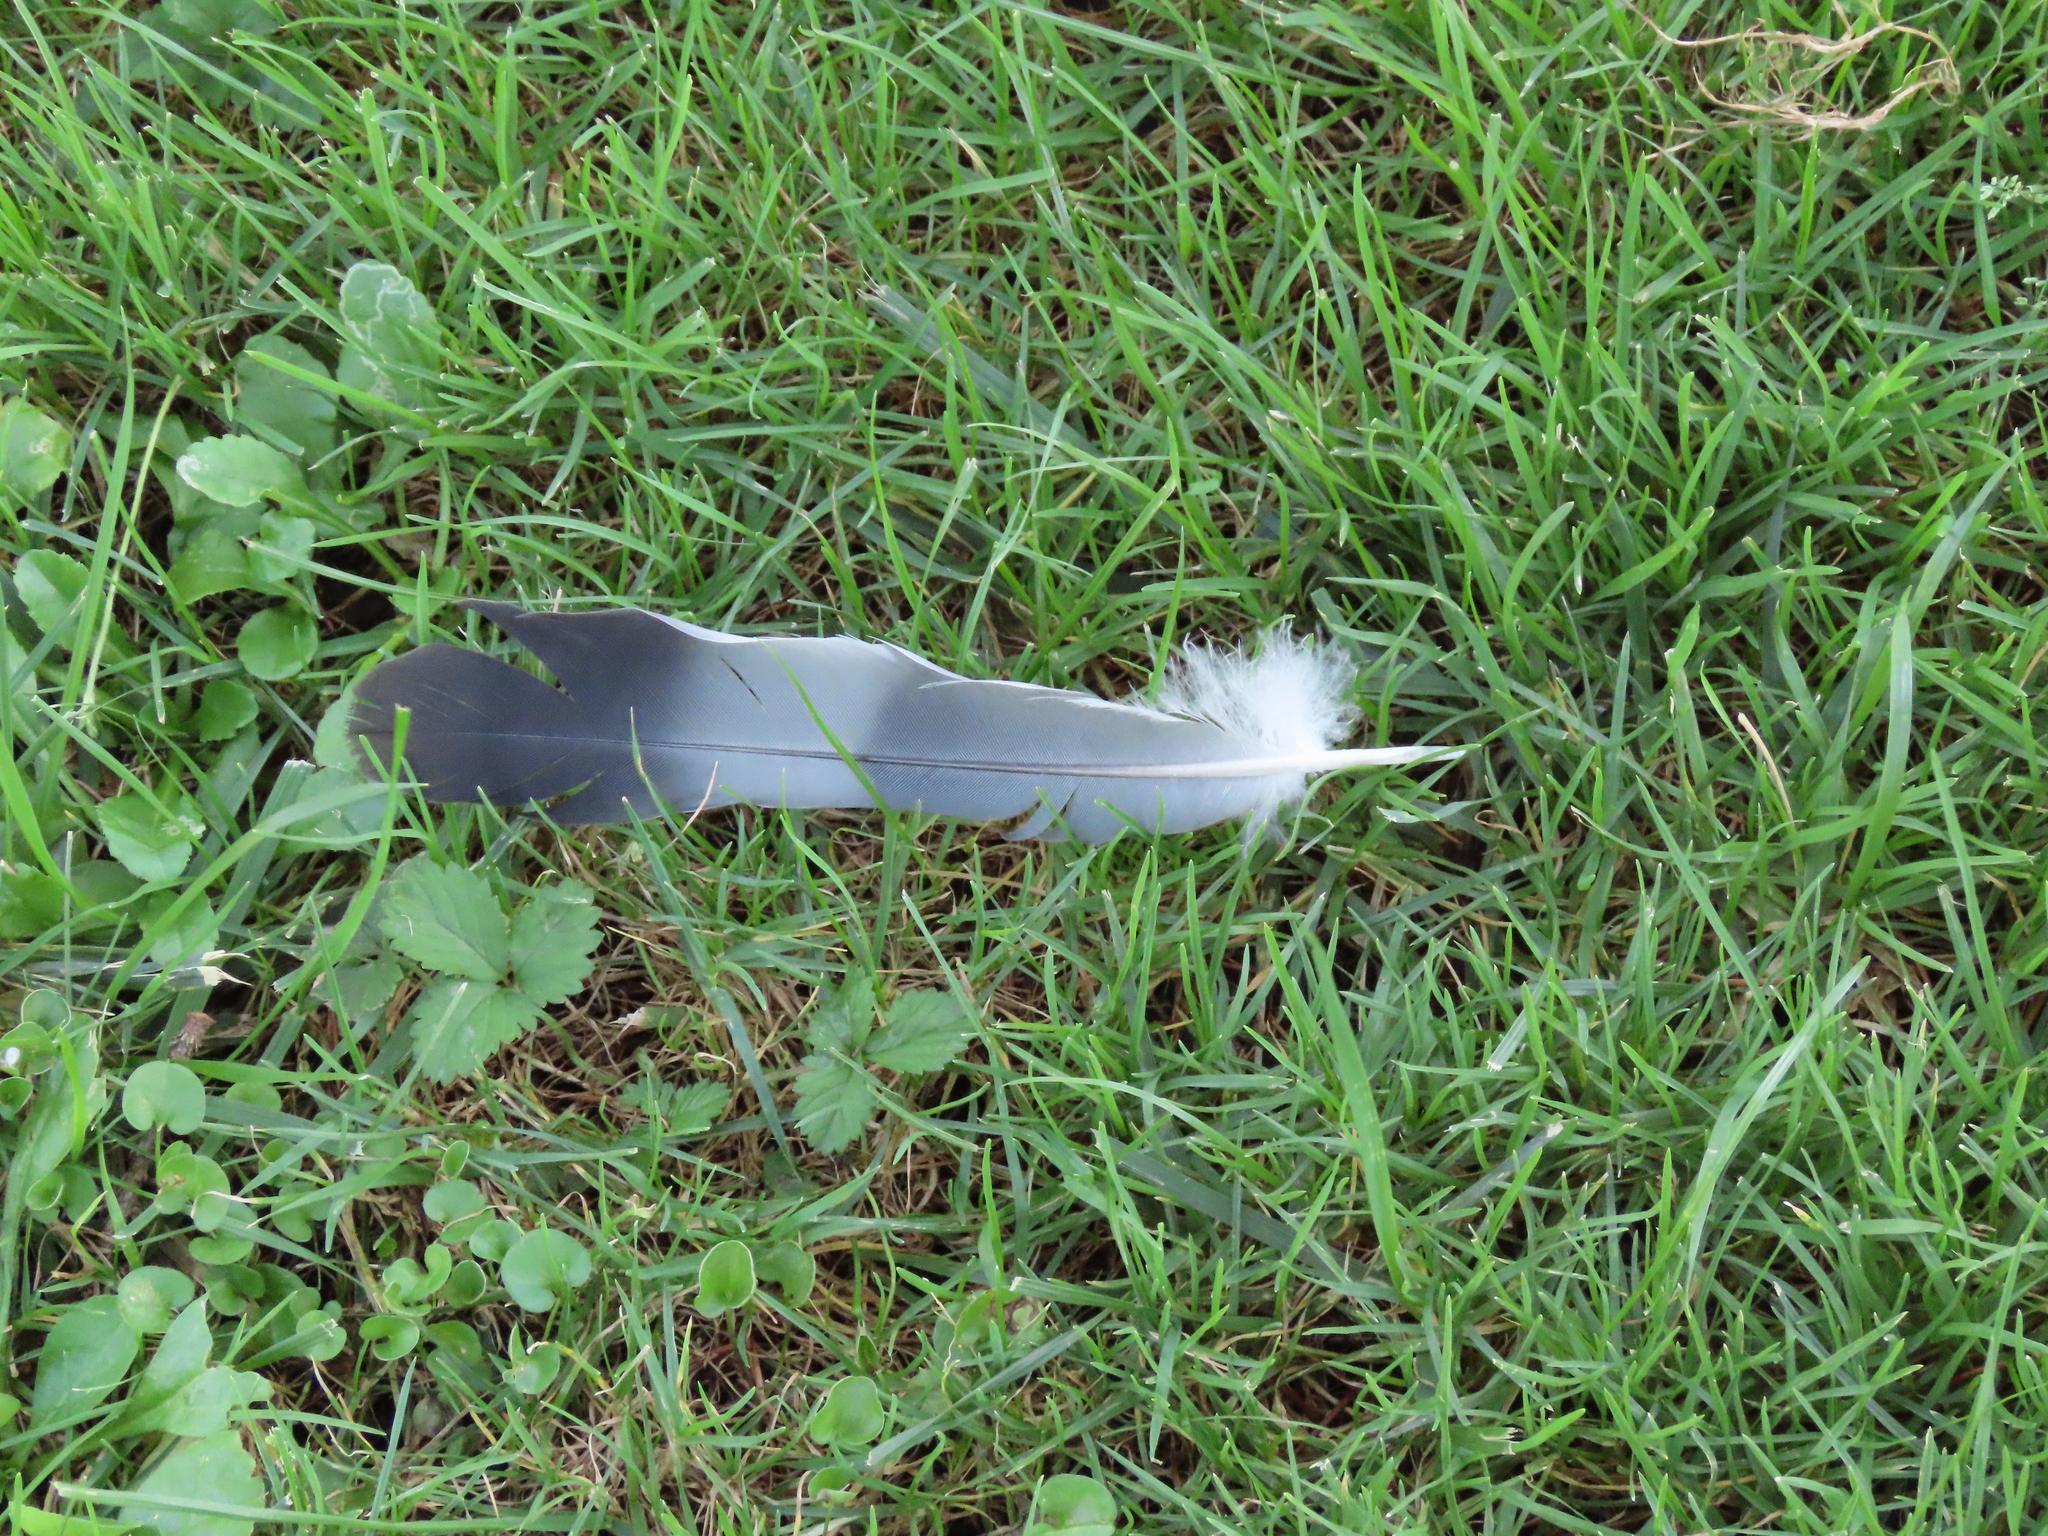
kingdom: Animalia
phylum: Chordata
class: Aves
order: Columbiformes
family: Columbidae
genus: Columba
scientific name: Columba palumbus
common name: Common wood pigeon
